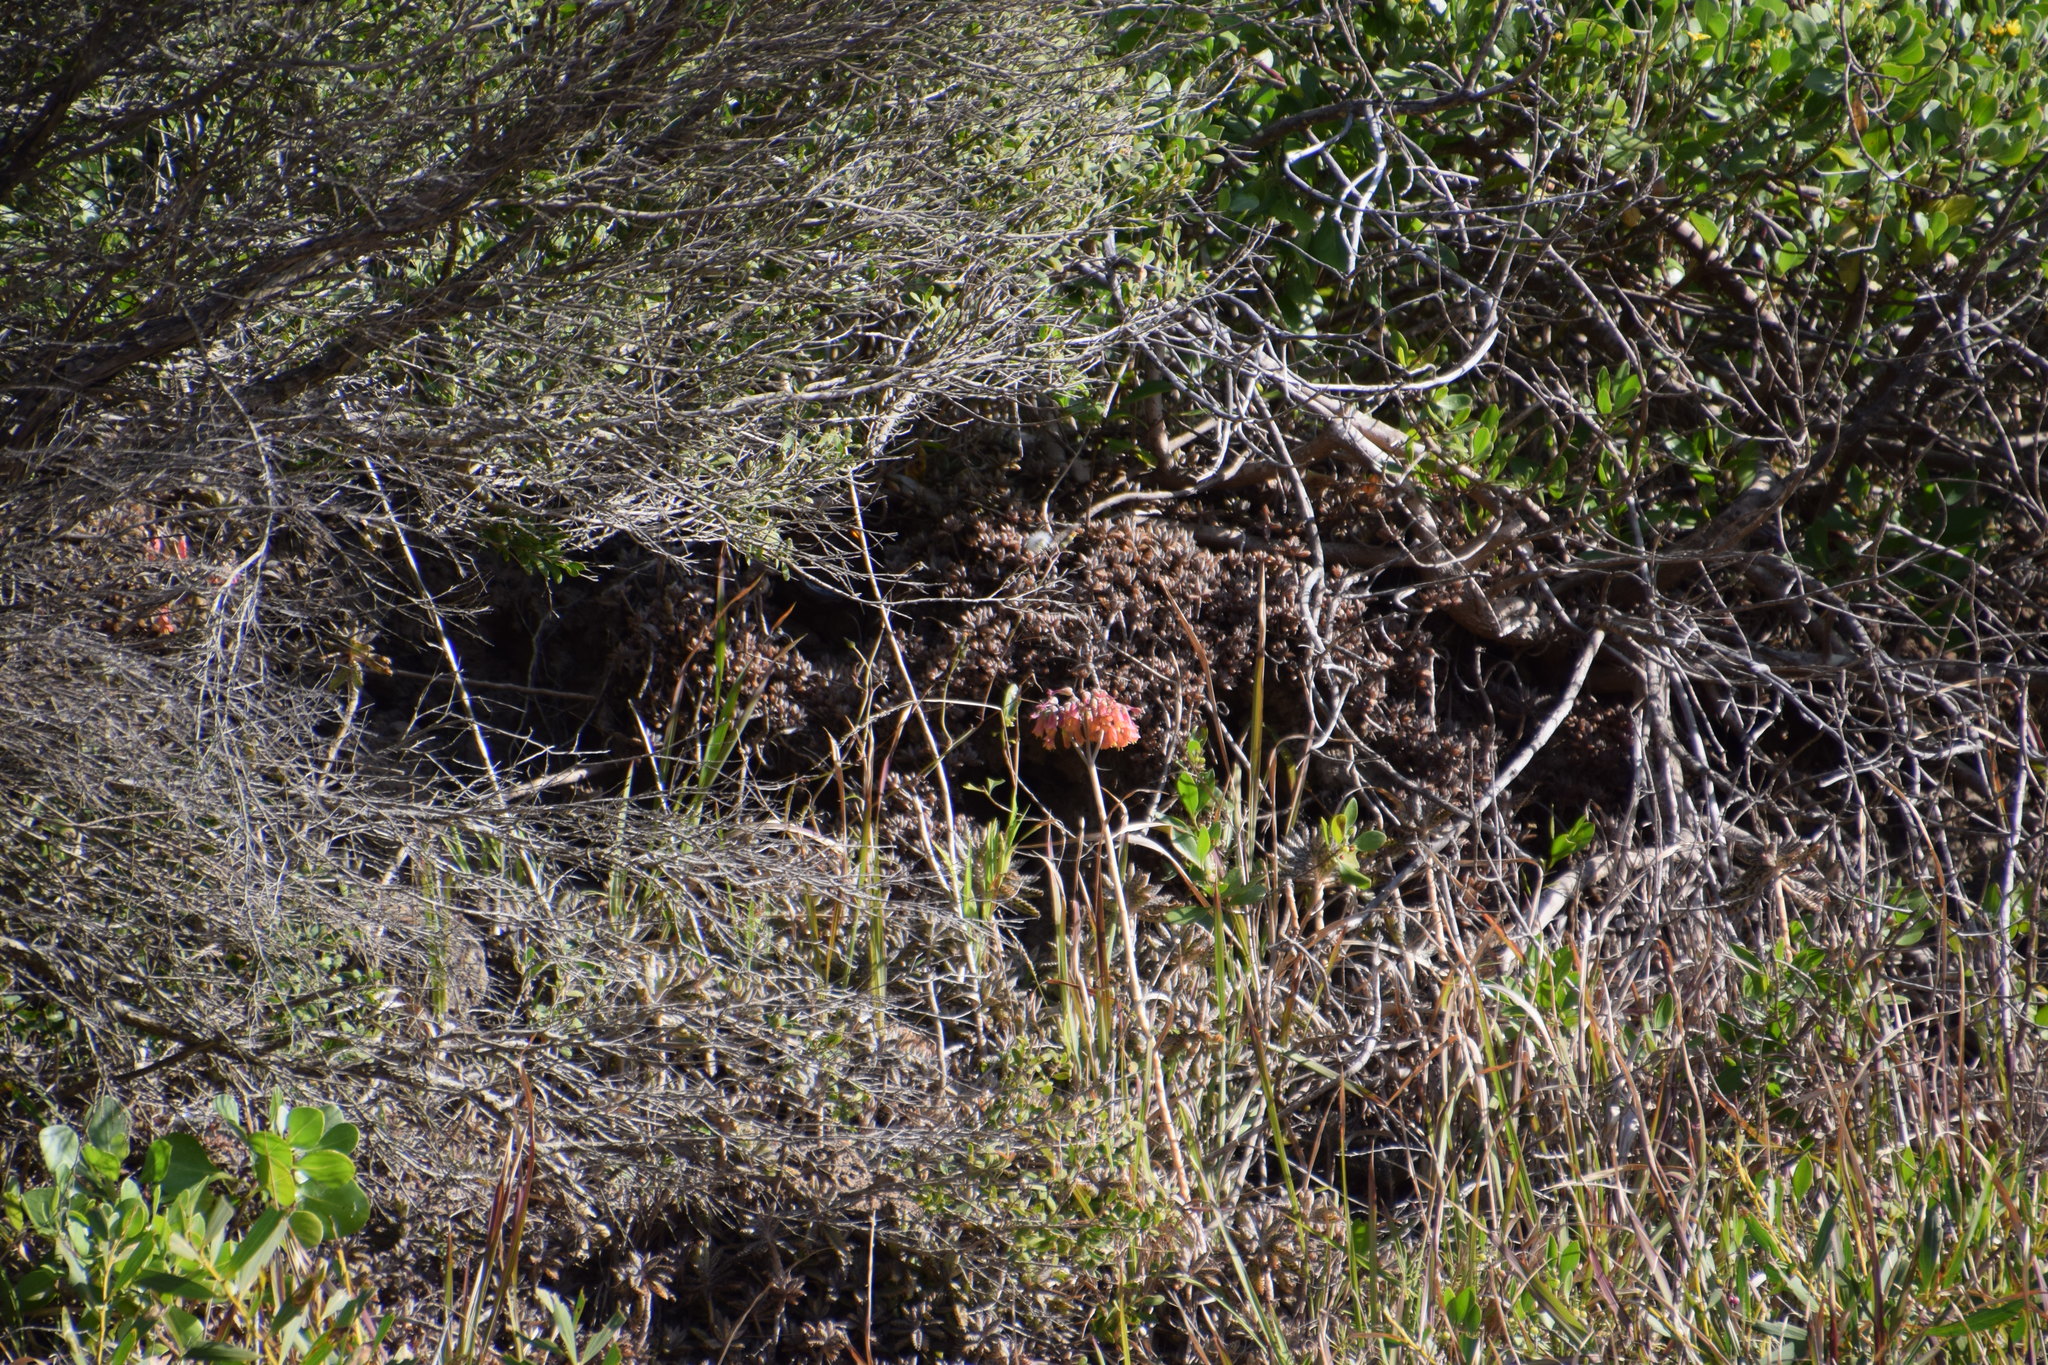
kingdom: Plantae
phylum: Tracheophyta
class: Magnoliopsida
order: Saxifragales
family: Crassulaceae
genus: Kalanchoe
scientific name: Kalanchoe houghtonii
